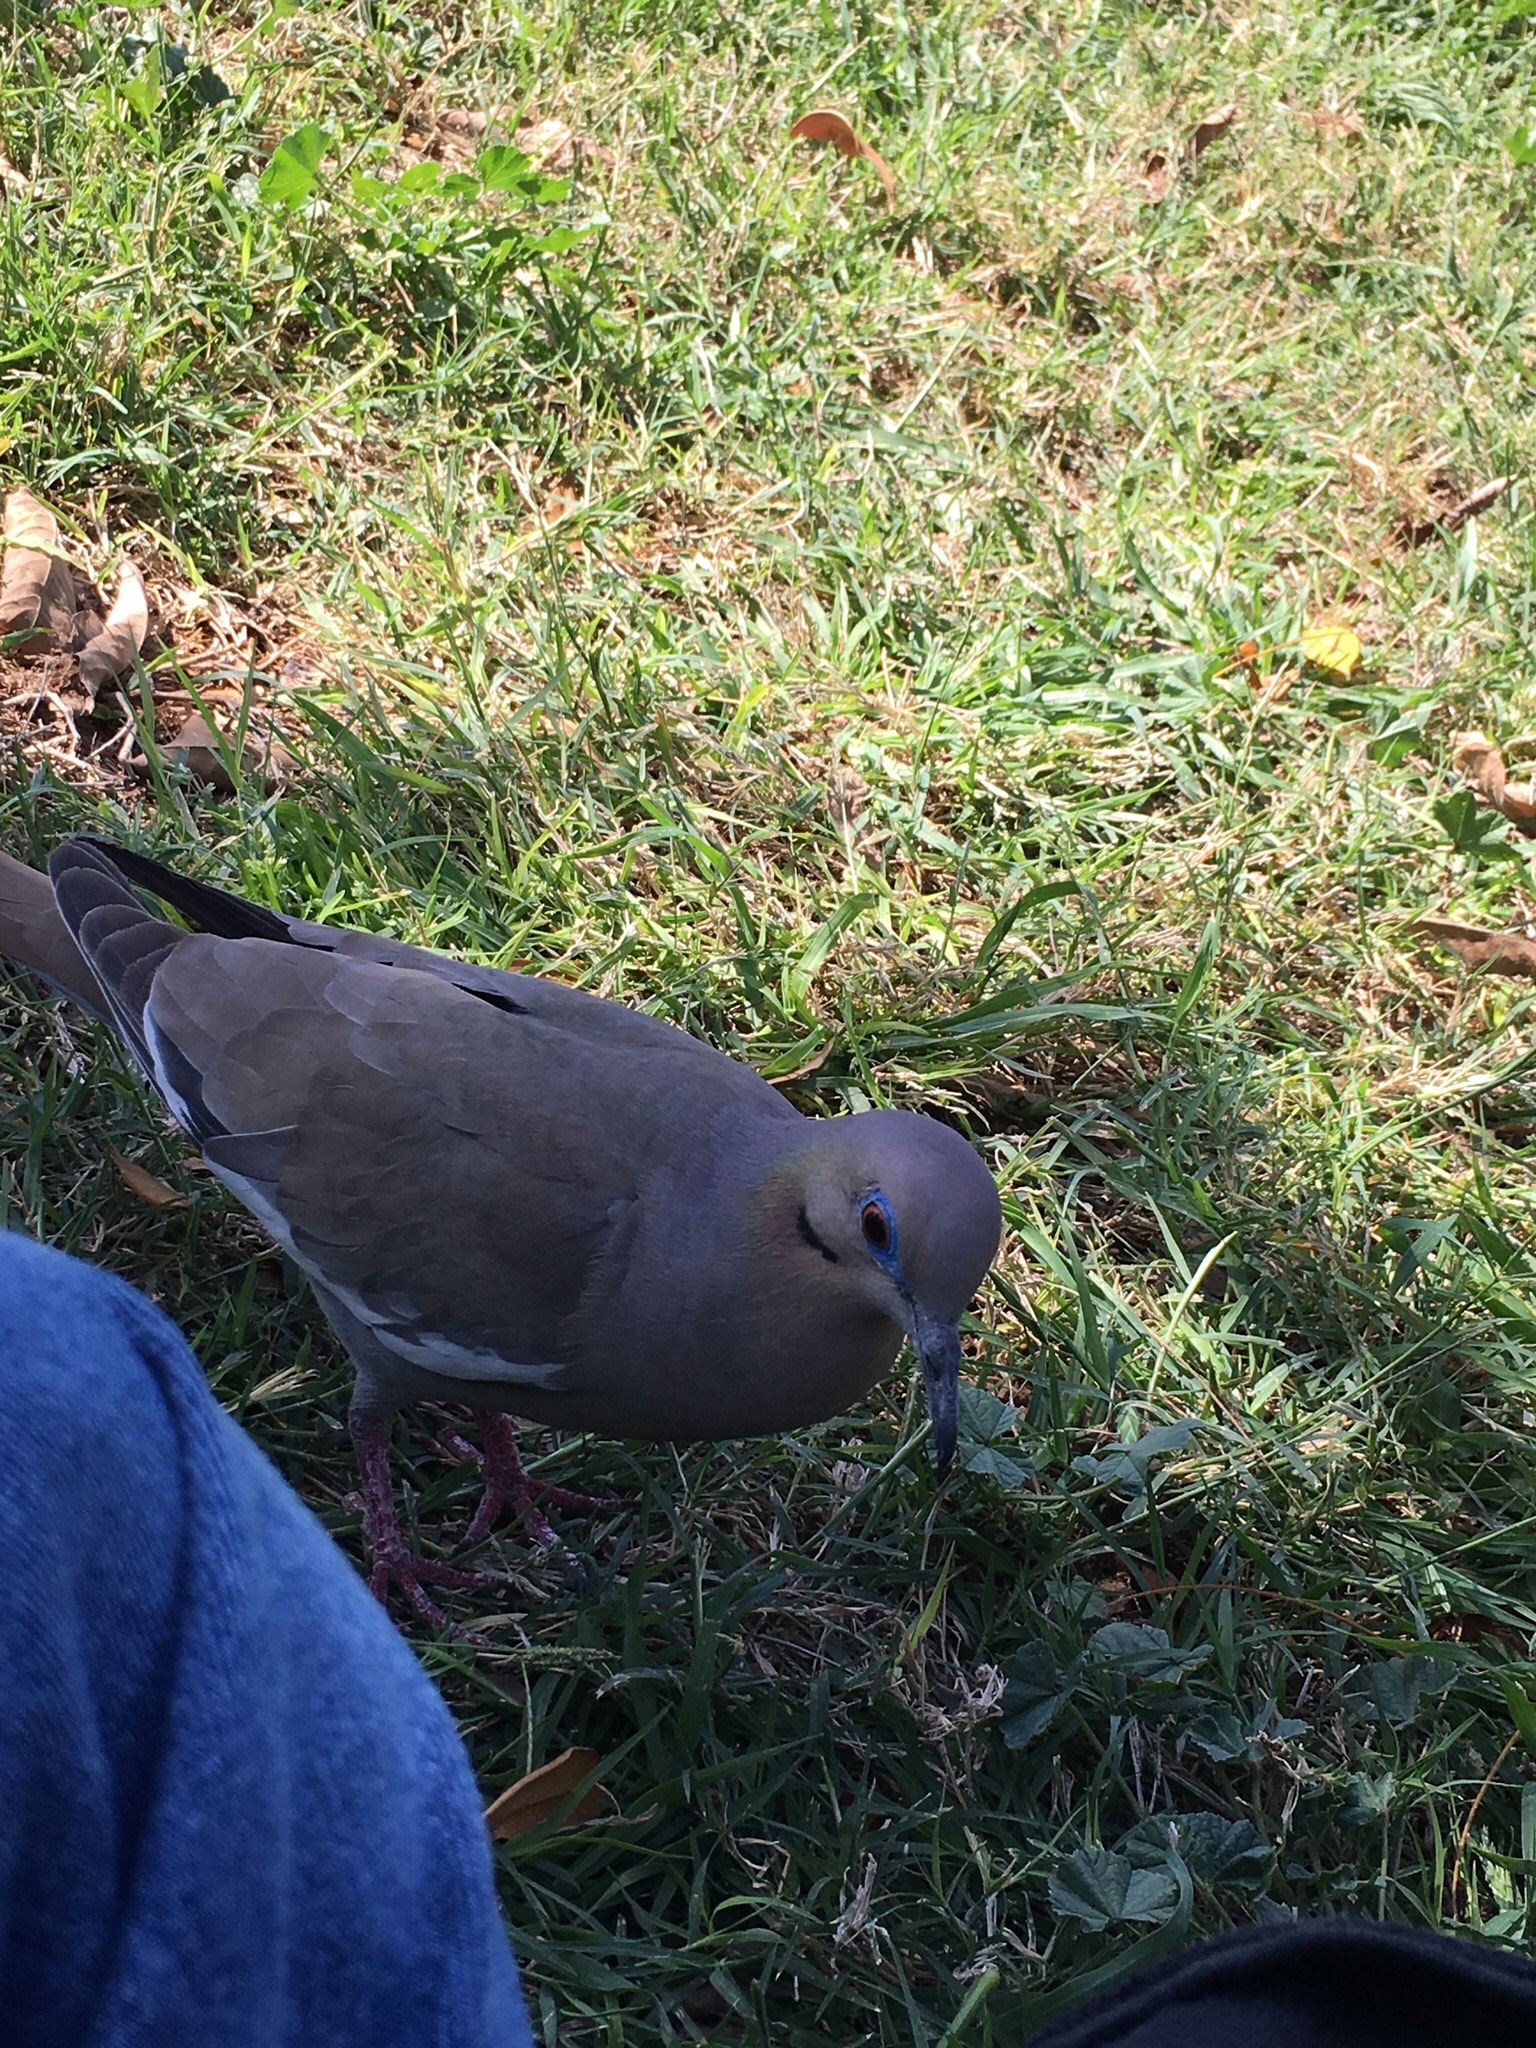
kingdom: Animalia
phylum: Chordata
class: Aves
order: Columbiformes
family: Columbidae
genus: Zenaida
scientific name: Zenaida asiatica
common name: White-winged dove
